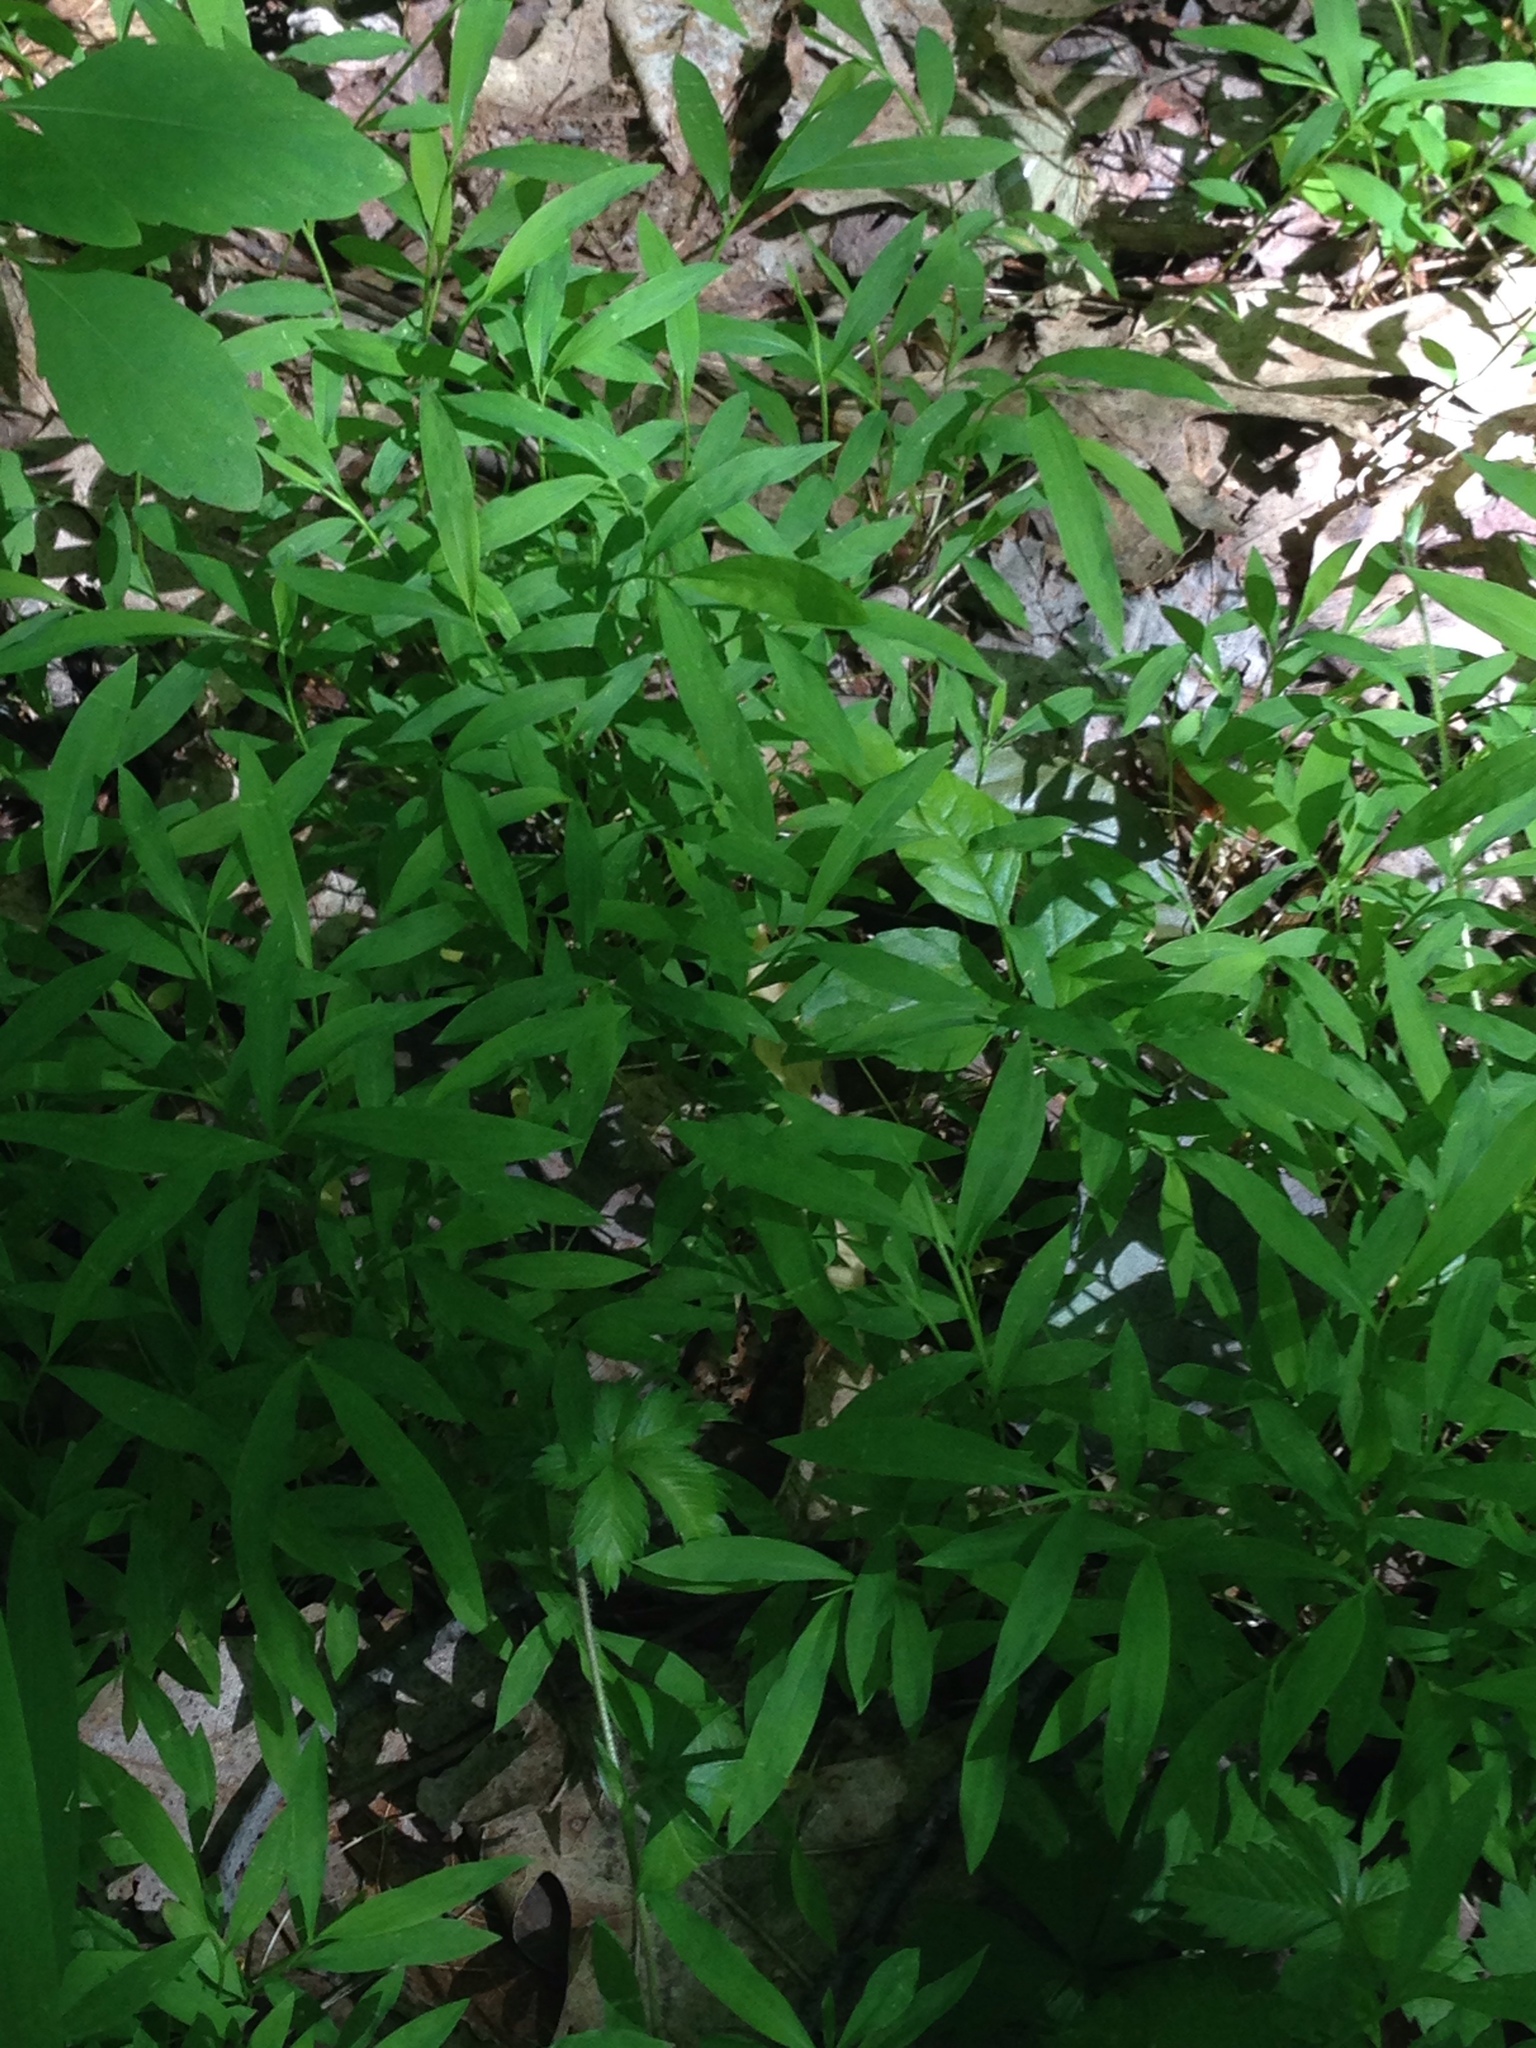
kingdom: Plantae
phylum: Tracheophyta
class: Liliopsida
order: Poales
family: Poaceae
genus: Microstegium
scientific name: Microstegium vimineum
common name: Japanese stiltgrass
